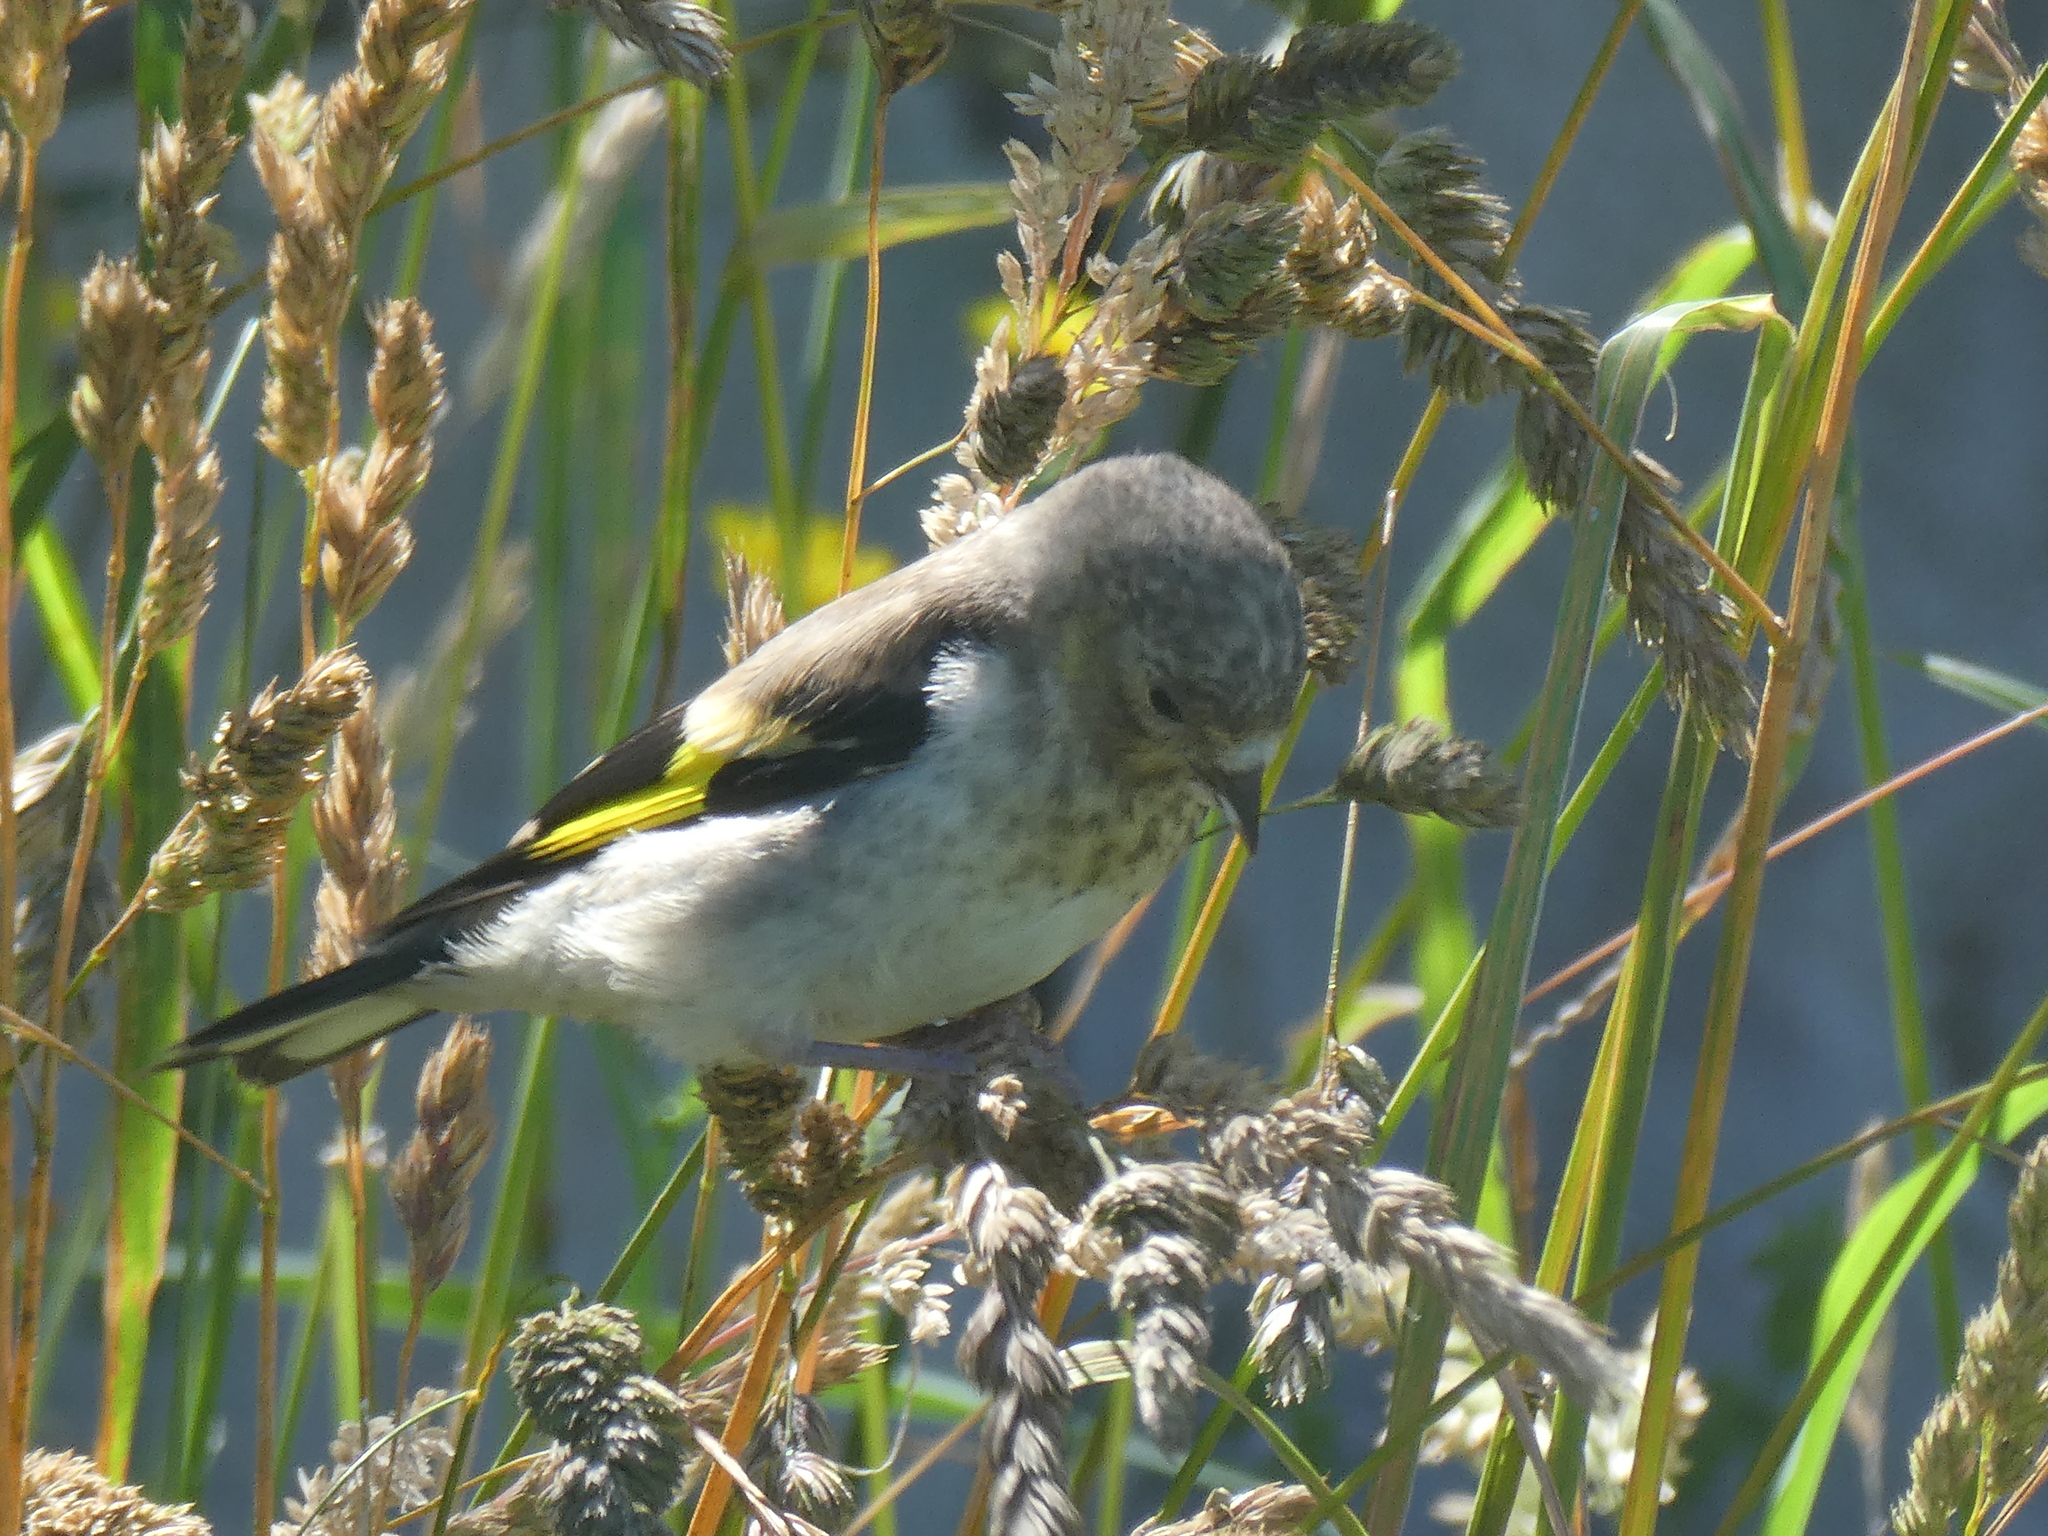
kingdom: Animalia
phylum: Chordata
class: Aves
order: Passeriformes
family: Fringillidae
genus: Carduelis
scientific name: Carduelis carduelis
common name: European goldfinch
